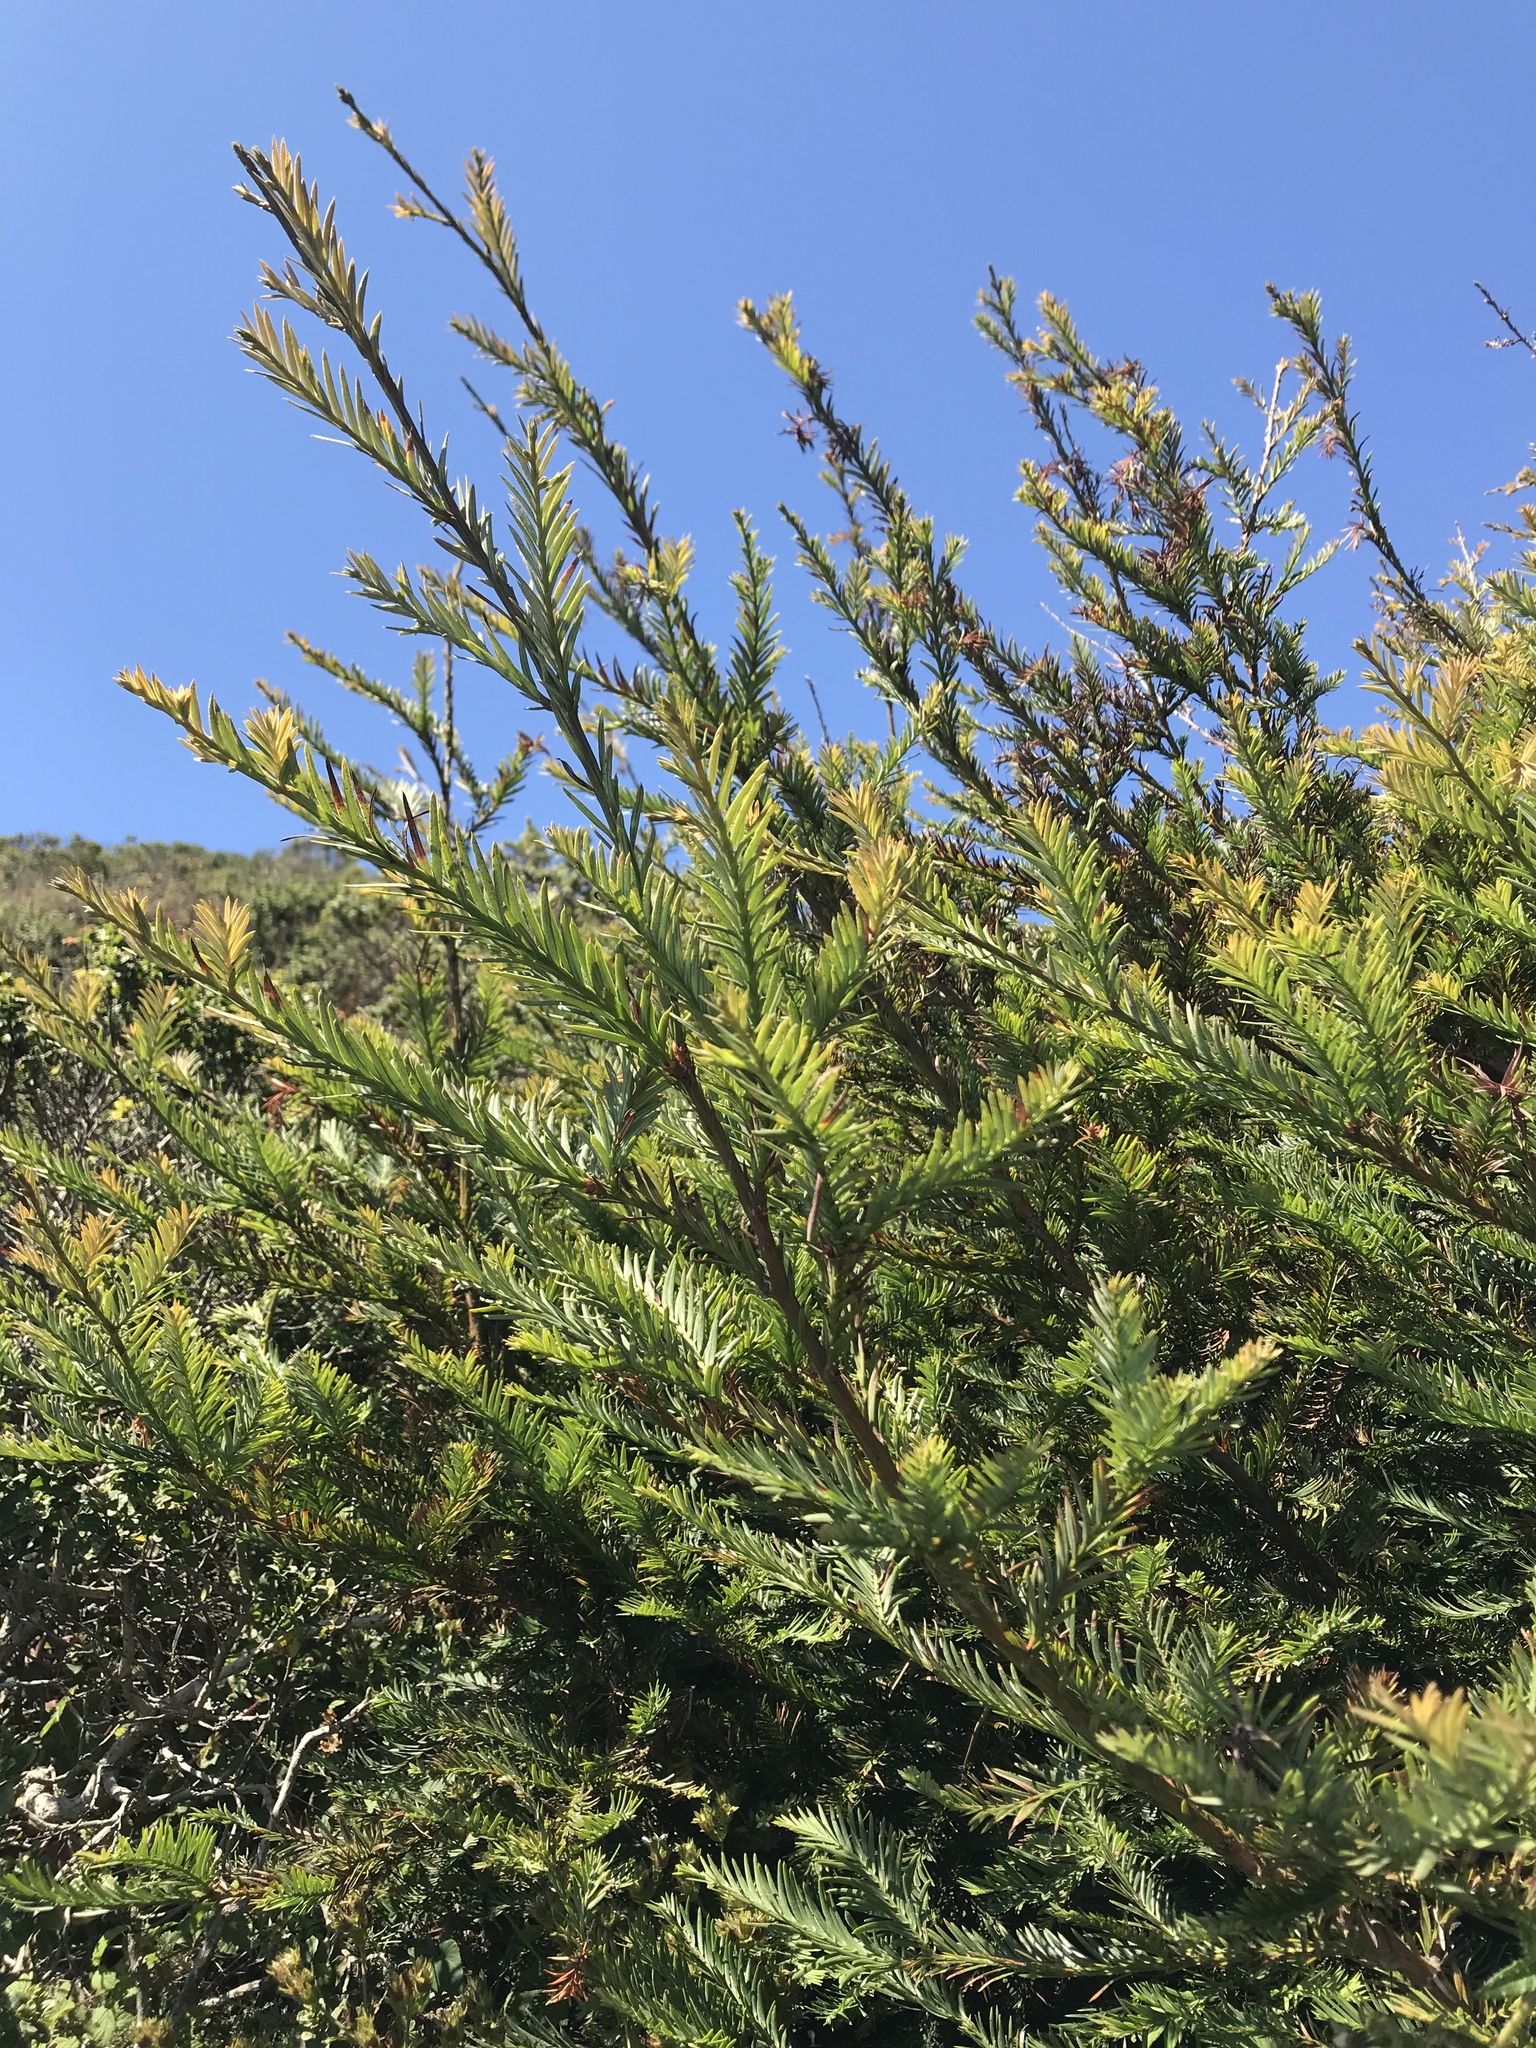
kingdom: Plantae
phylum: Tracheophyta
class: Pinopsida
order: Pinales
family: Cupressaceae
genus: Sequoia
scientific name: Sequoia sempervirens
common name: Coast redwood
